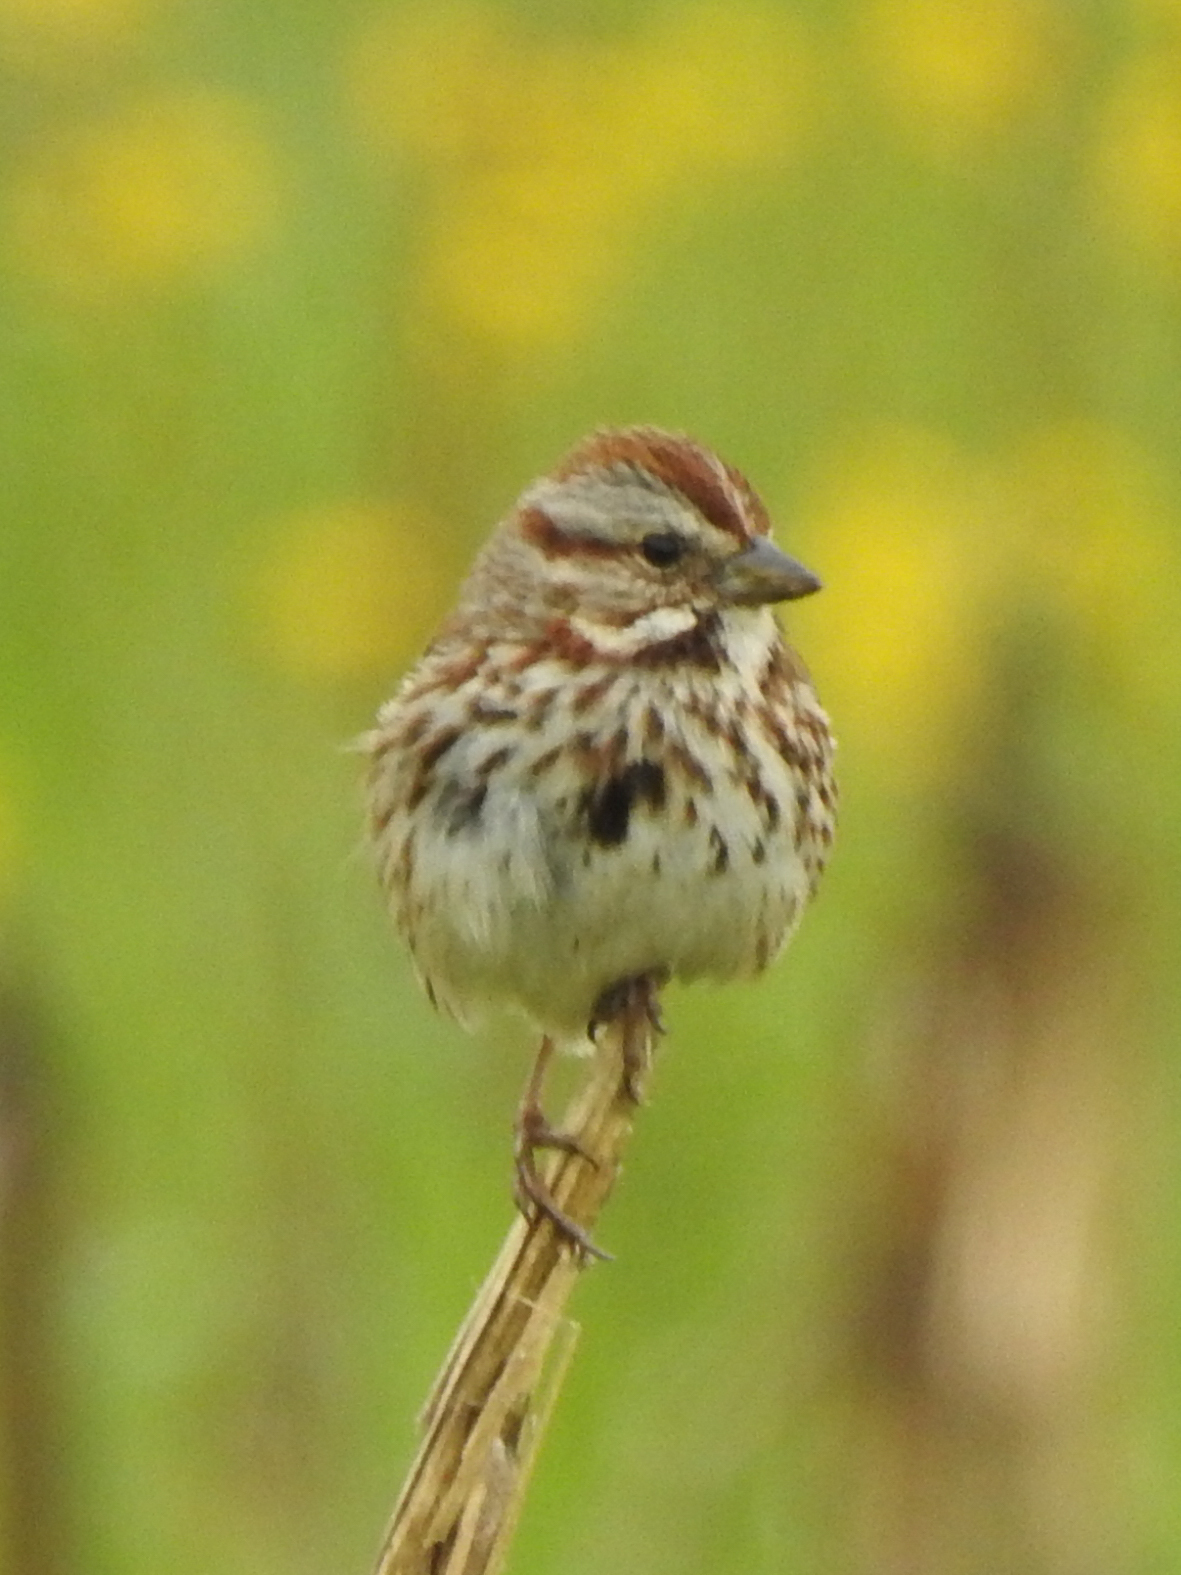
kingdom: Animalia
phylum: Chordata
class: Aves
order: Passeriformes
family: Passerellidae
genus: Melospiza
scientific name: Melospiza melodia
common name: Song sparrow
